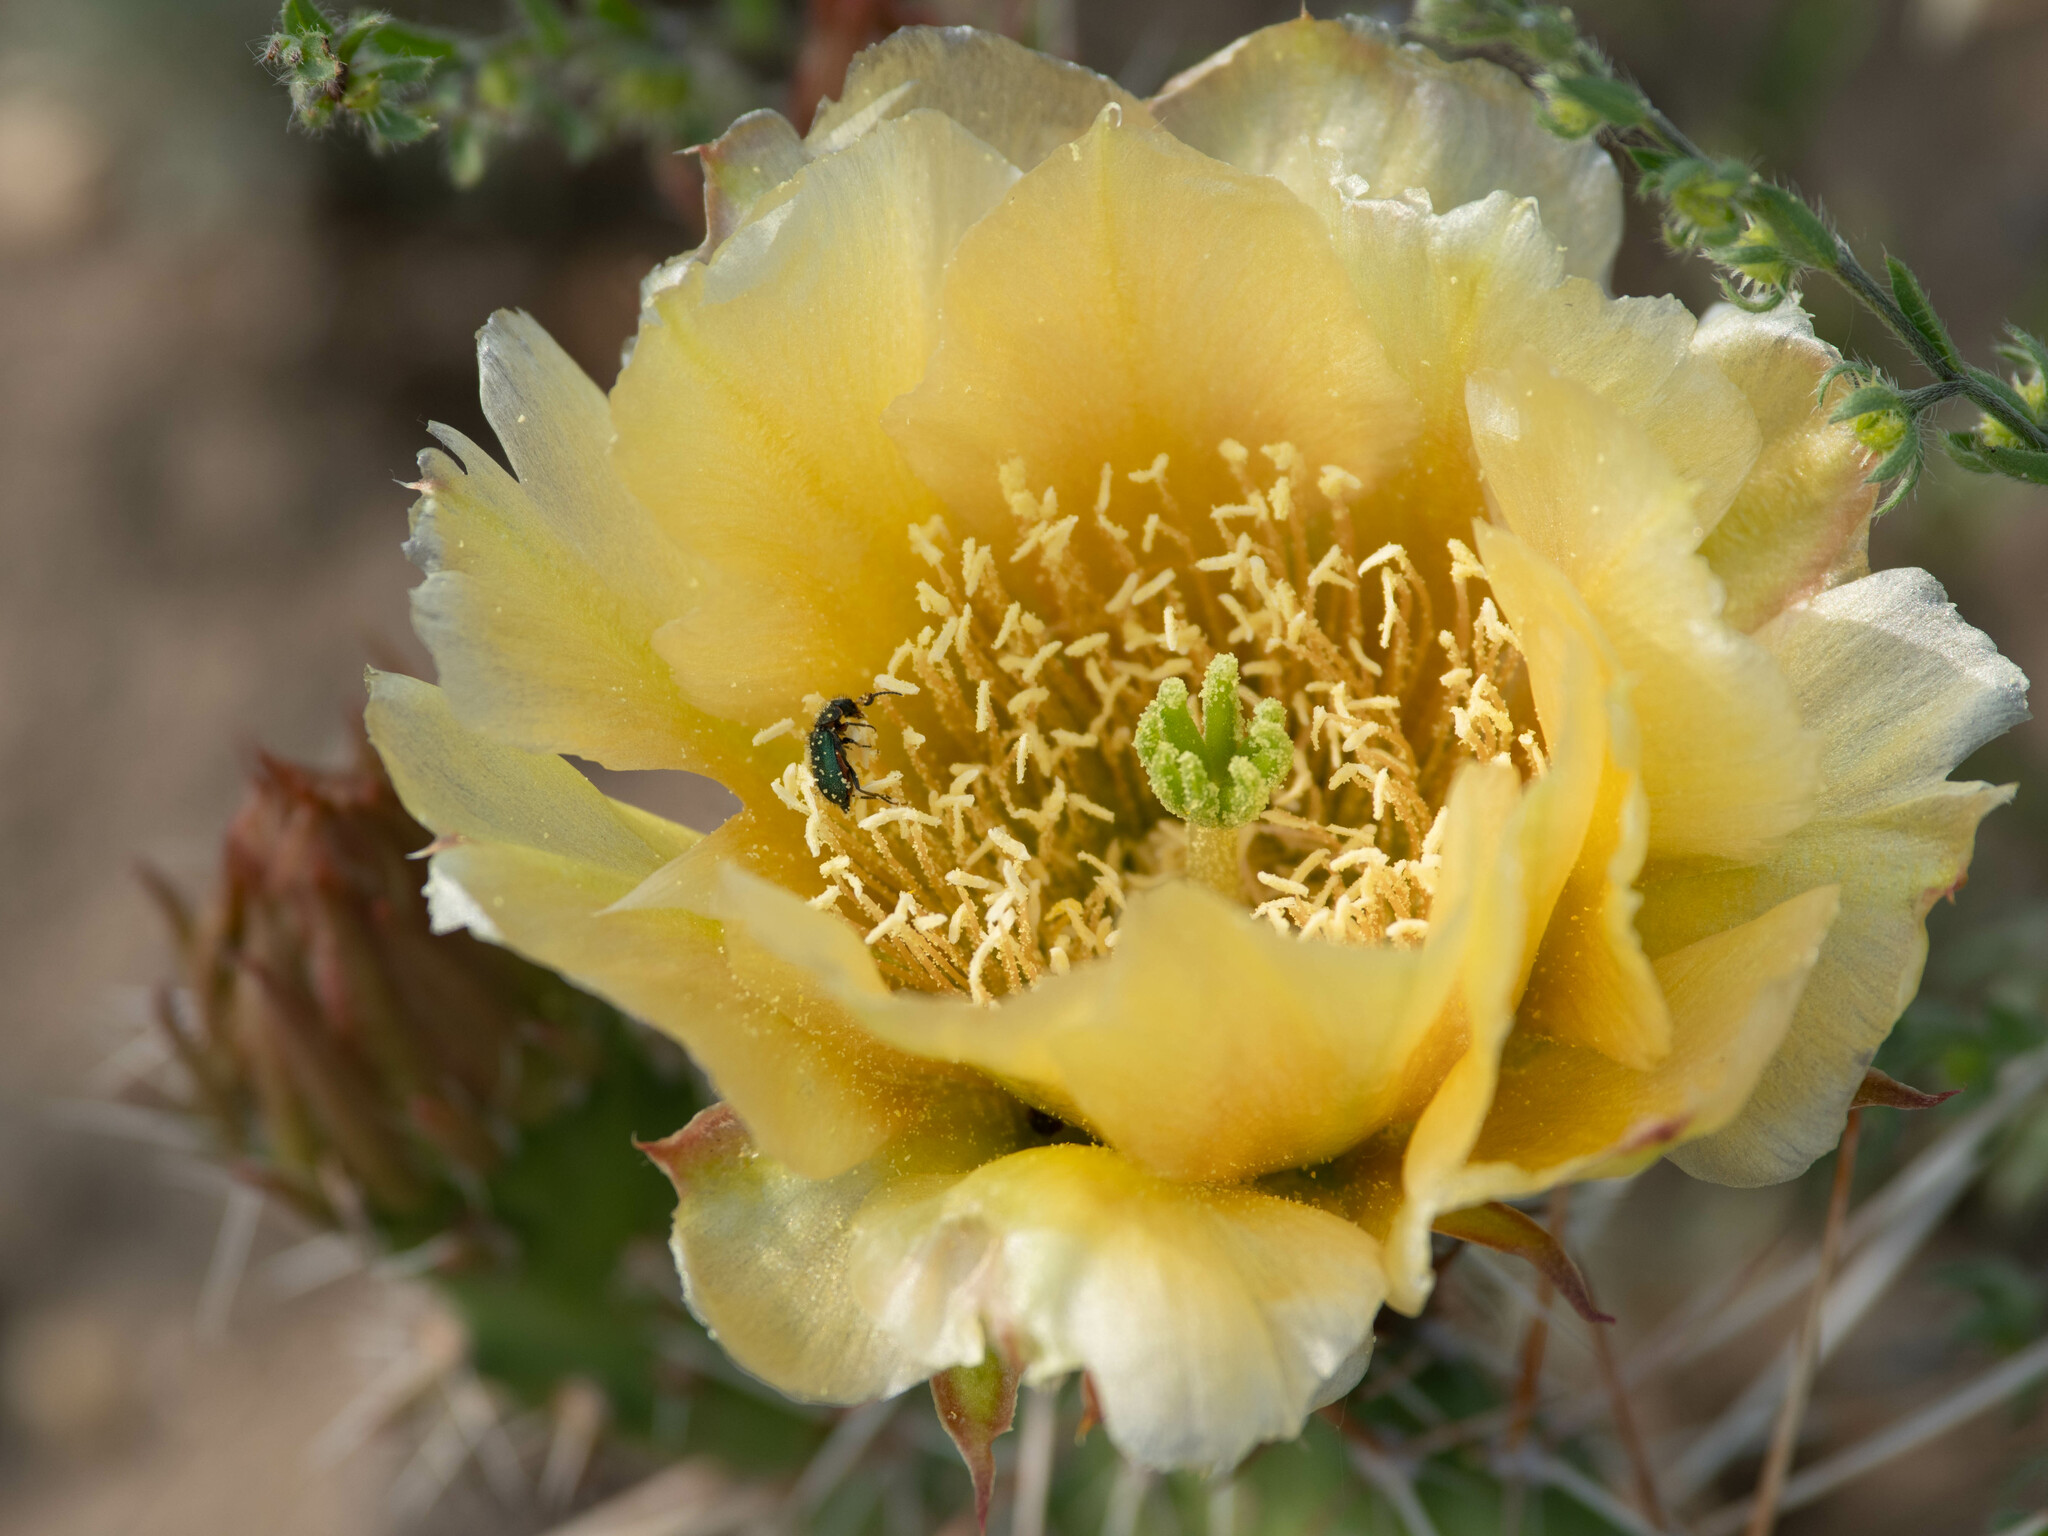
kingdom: Plantae
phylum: Tracheophyta
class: Magnoliopsida
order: Caryophyllales
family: Cactaceae
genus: Opuntia
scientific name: Opuntia polyacantha
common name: Plains prickly-pear
